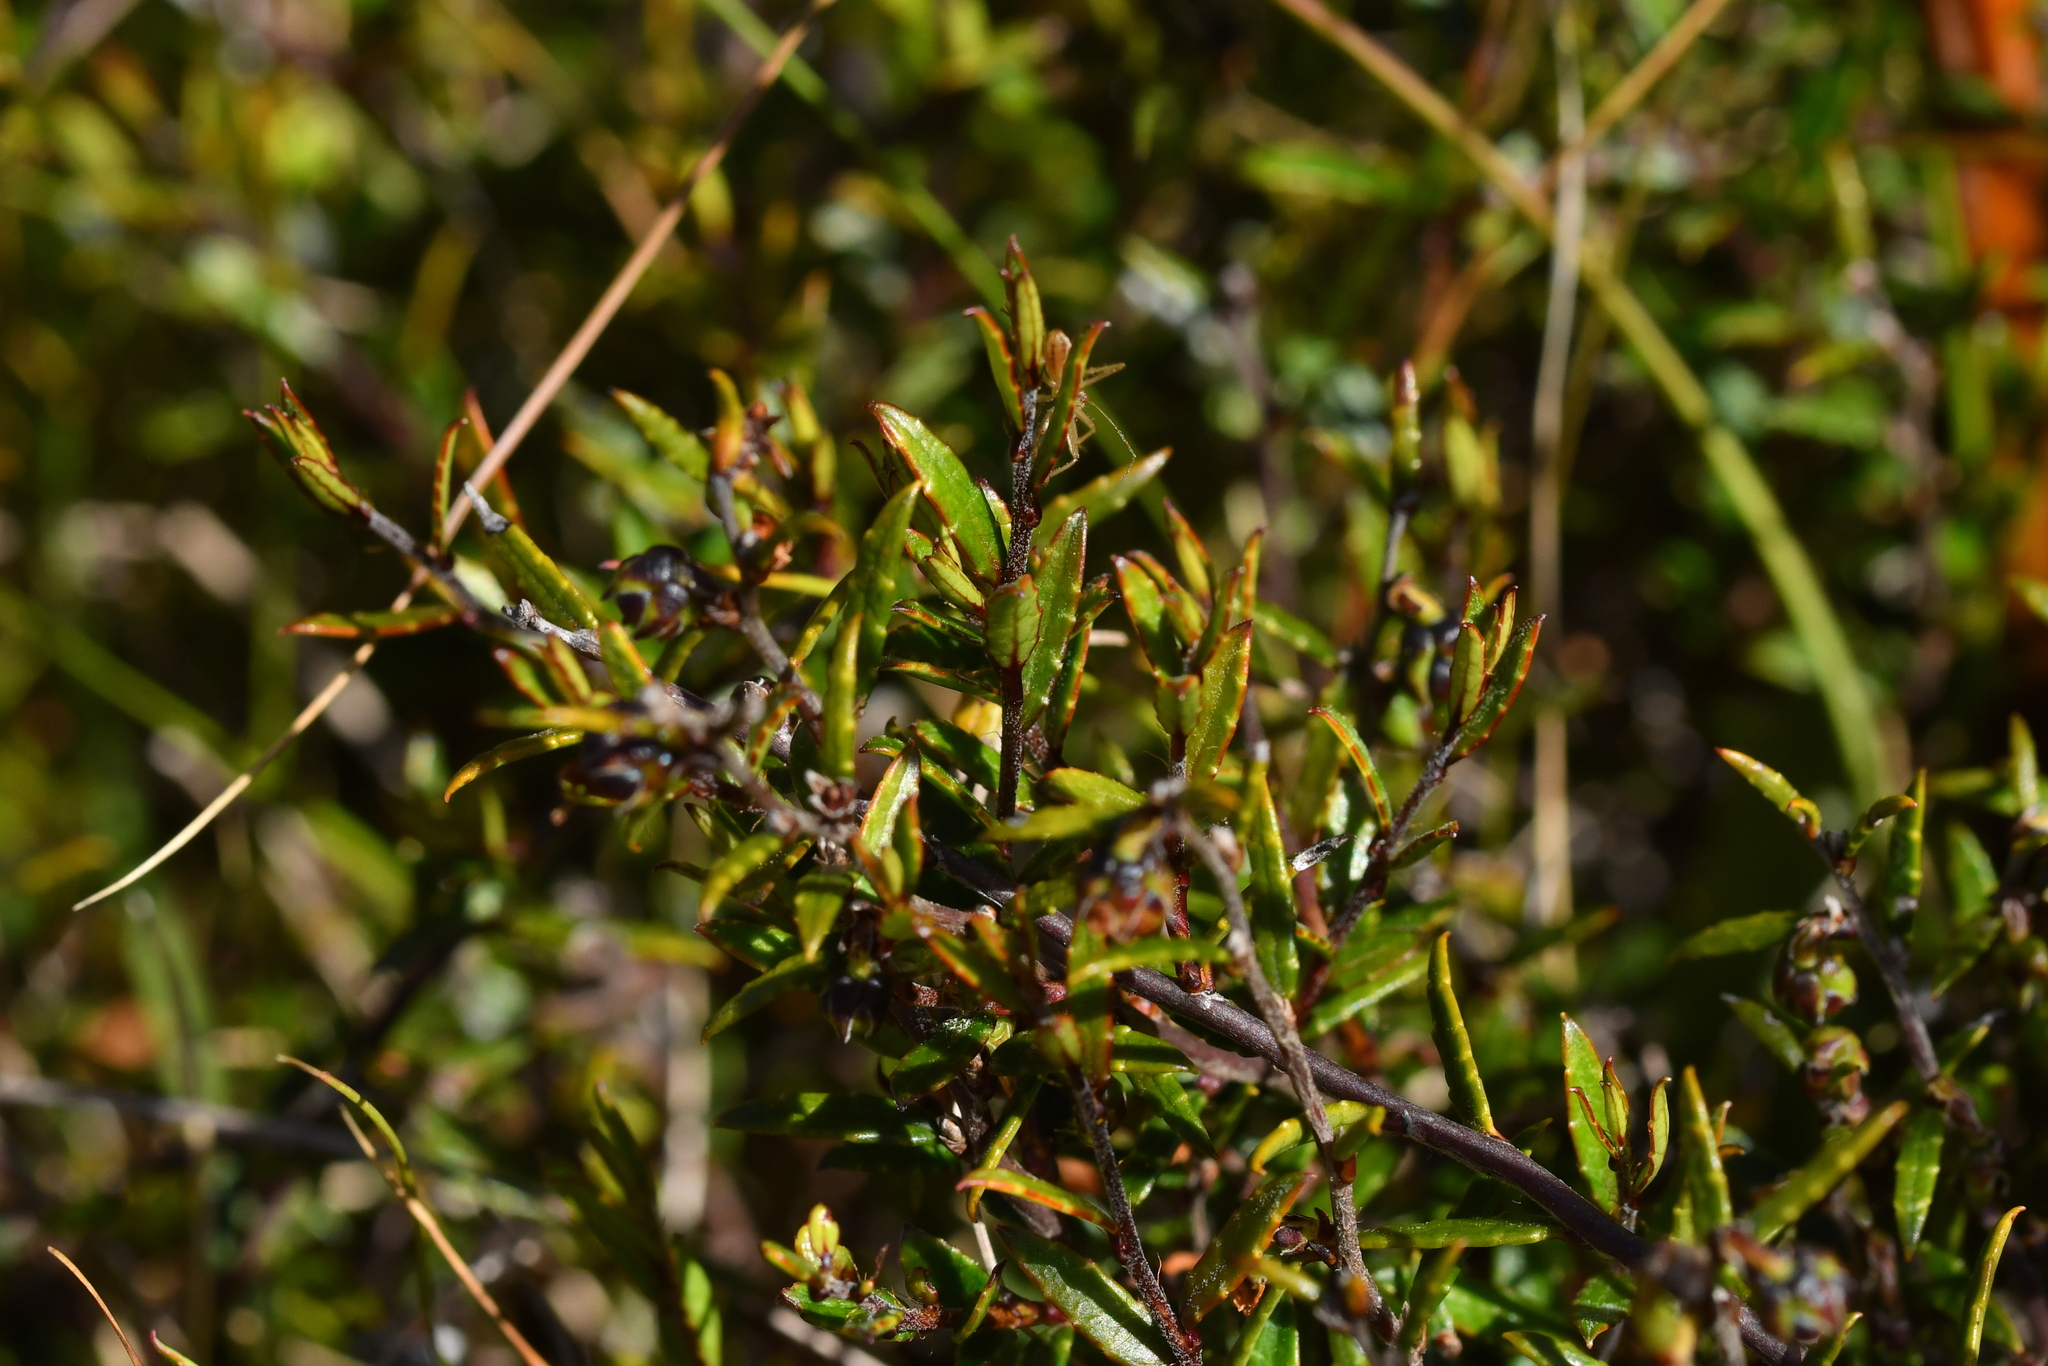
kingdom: Plantae
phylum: Tracheophyta
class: Magnoliopsida
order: Ericales
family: Ericaceae
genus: Gaultheria
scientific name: Gaultheria macrostigma
